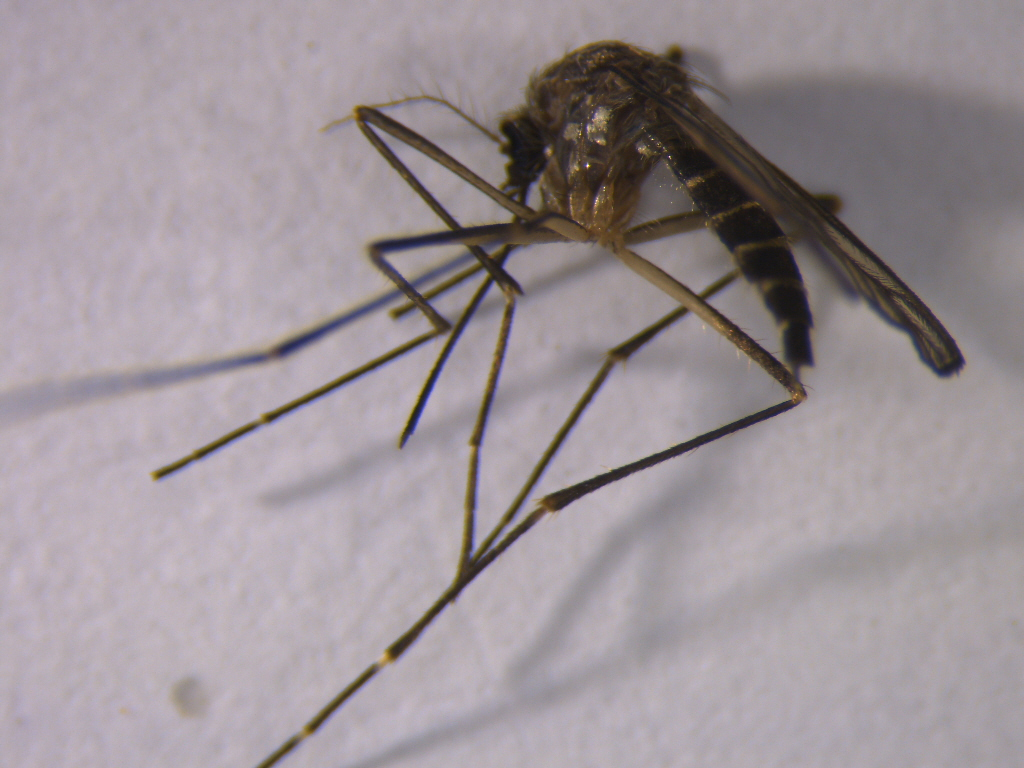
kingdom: Animalia
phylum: Arthropoda
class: Insecta
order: Diptera
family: Culicidae
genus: Aedes
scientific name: Aedes antipodeus
